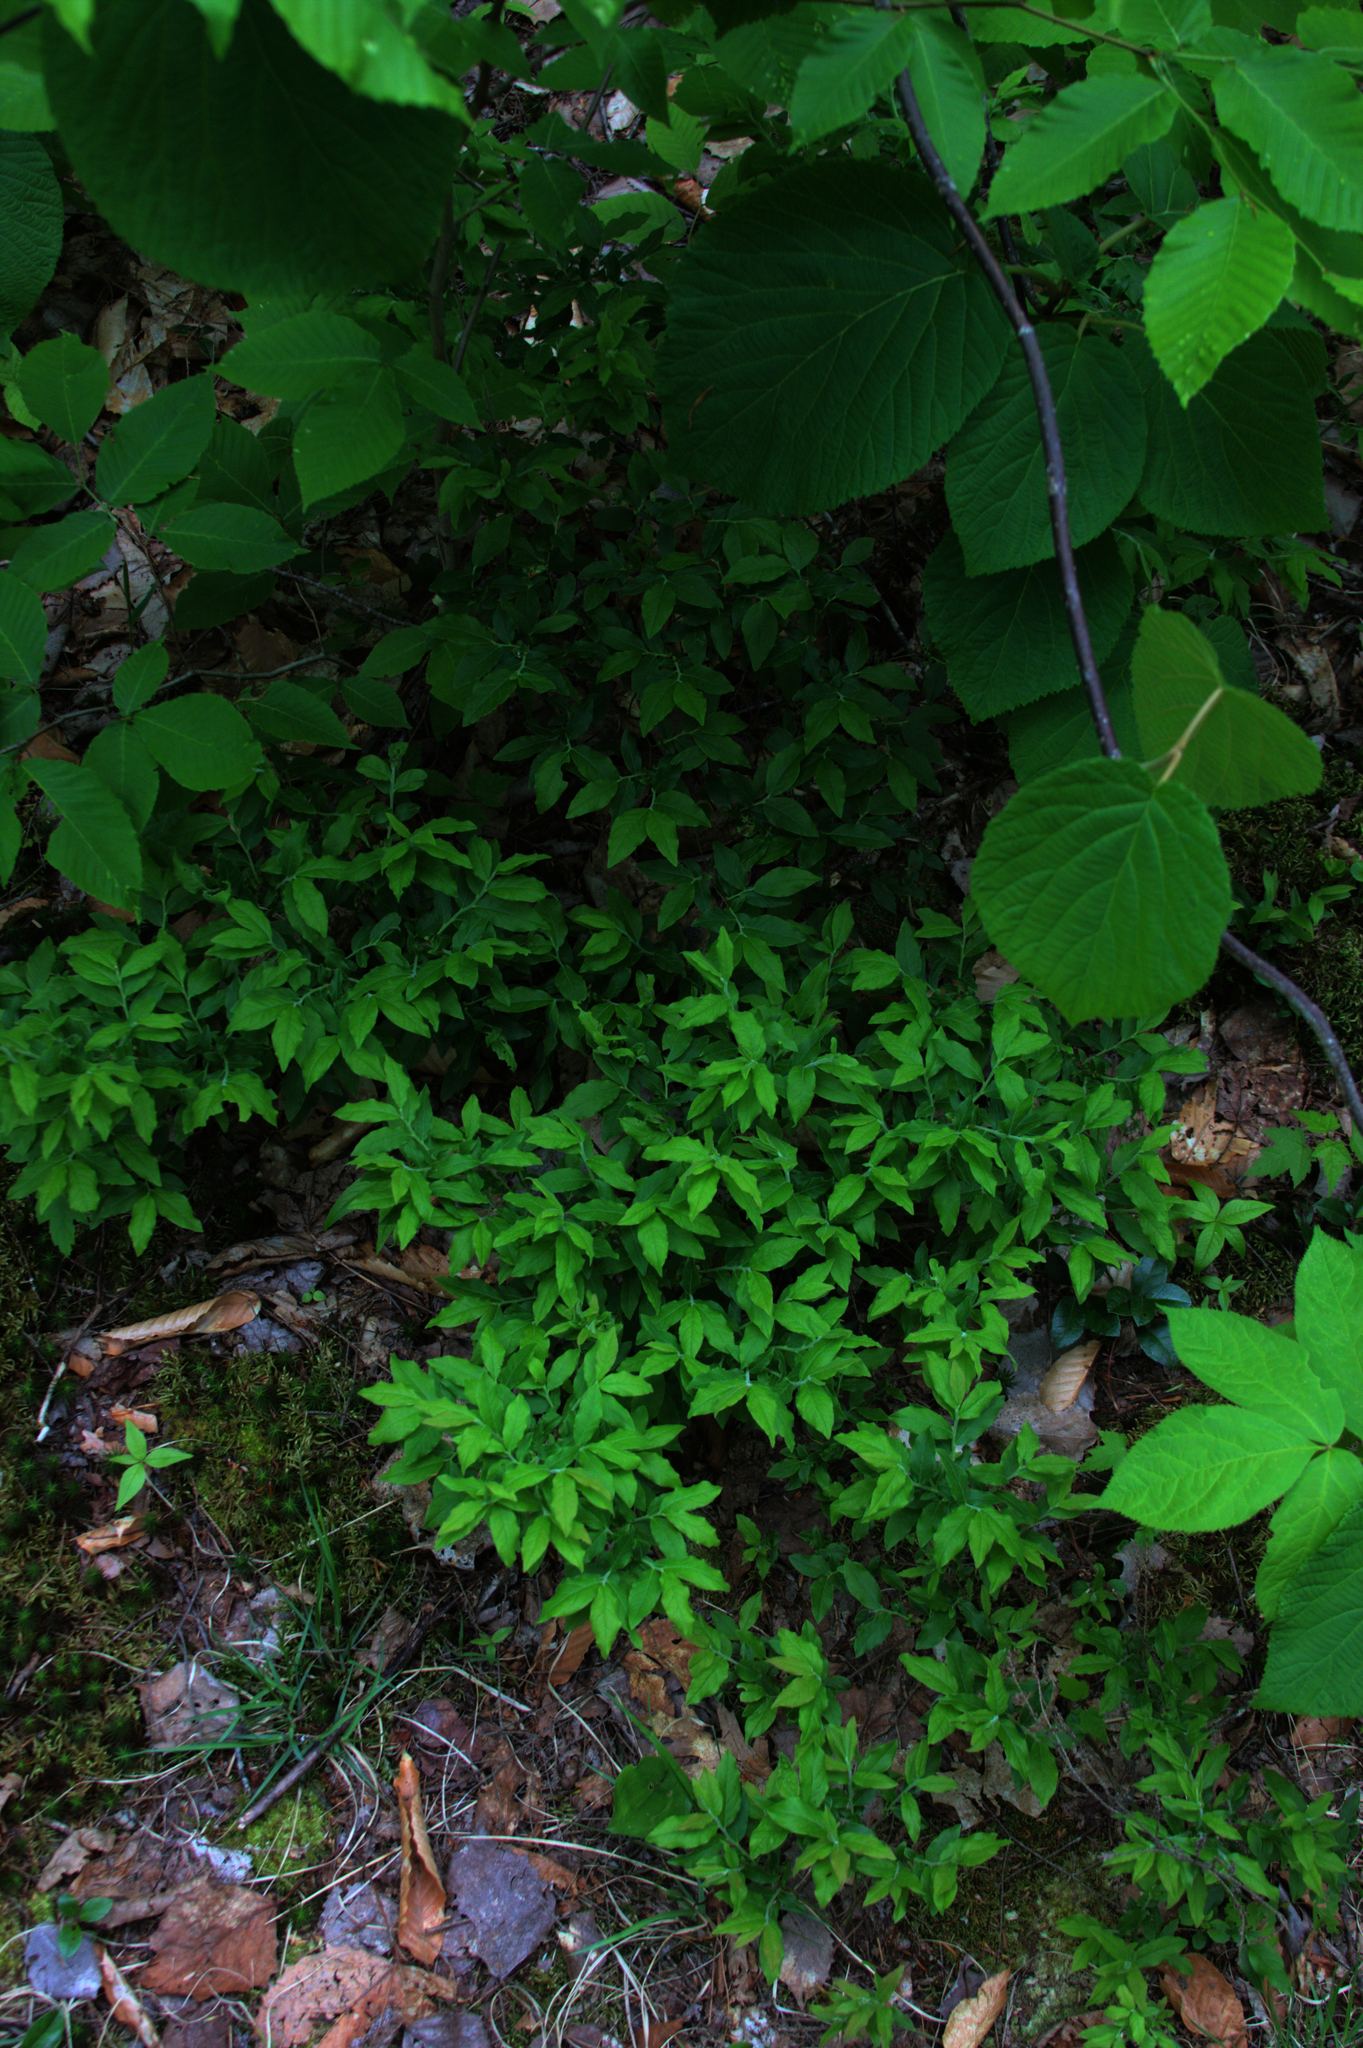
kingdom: Plantae
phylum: Tracheophyta
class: Magnoliopsida
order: Dipsacales
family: Viburnaceae
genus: Viburnum
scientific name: Viburnum lantanoides
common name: Hobblebush
